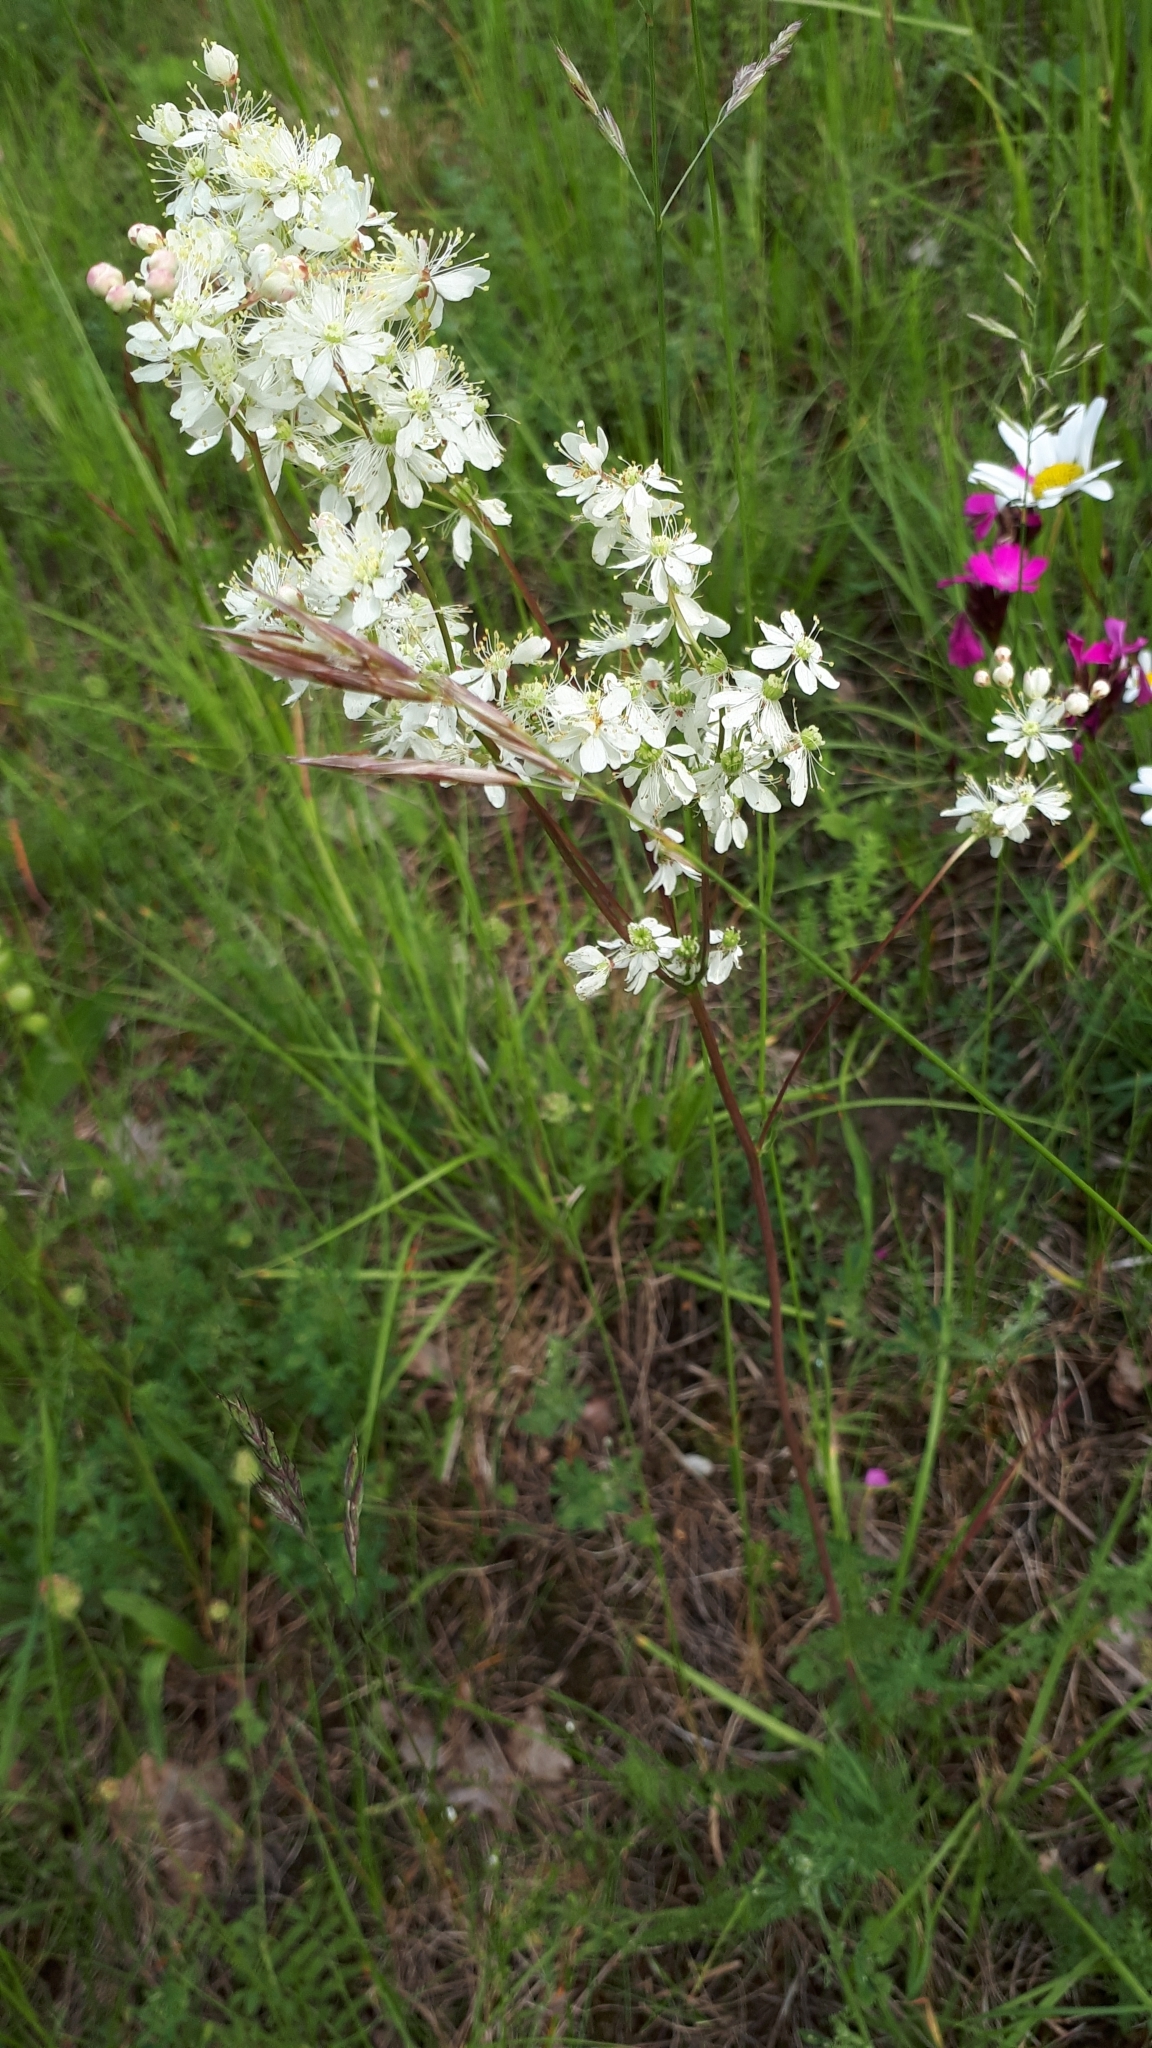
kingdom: Plantae
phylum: Tracheophyta
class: Magnoliopsida
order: Rosales
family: Rosaceae
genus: Filipendula
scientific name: Filipendula vulgaris
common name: Dropwort
